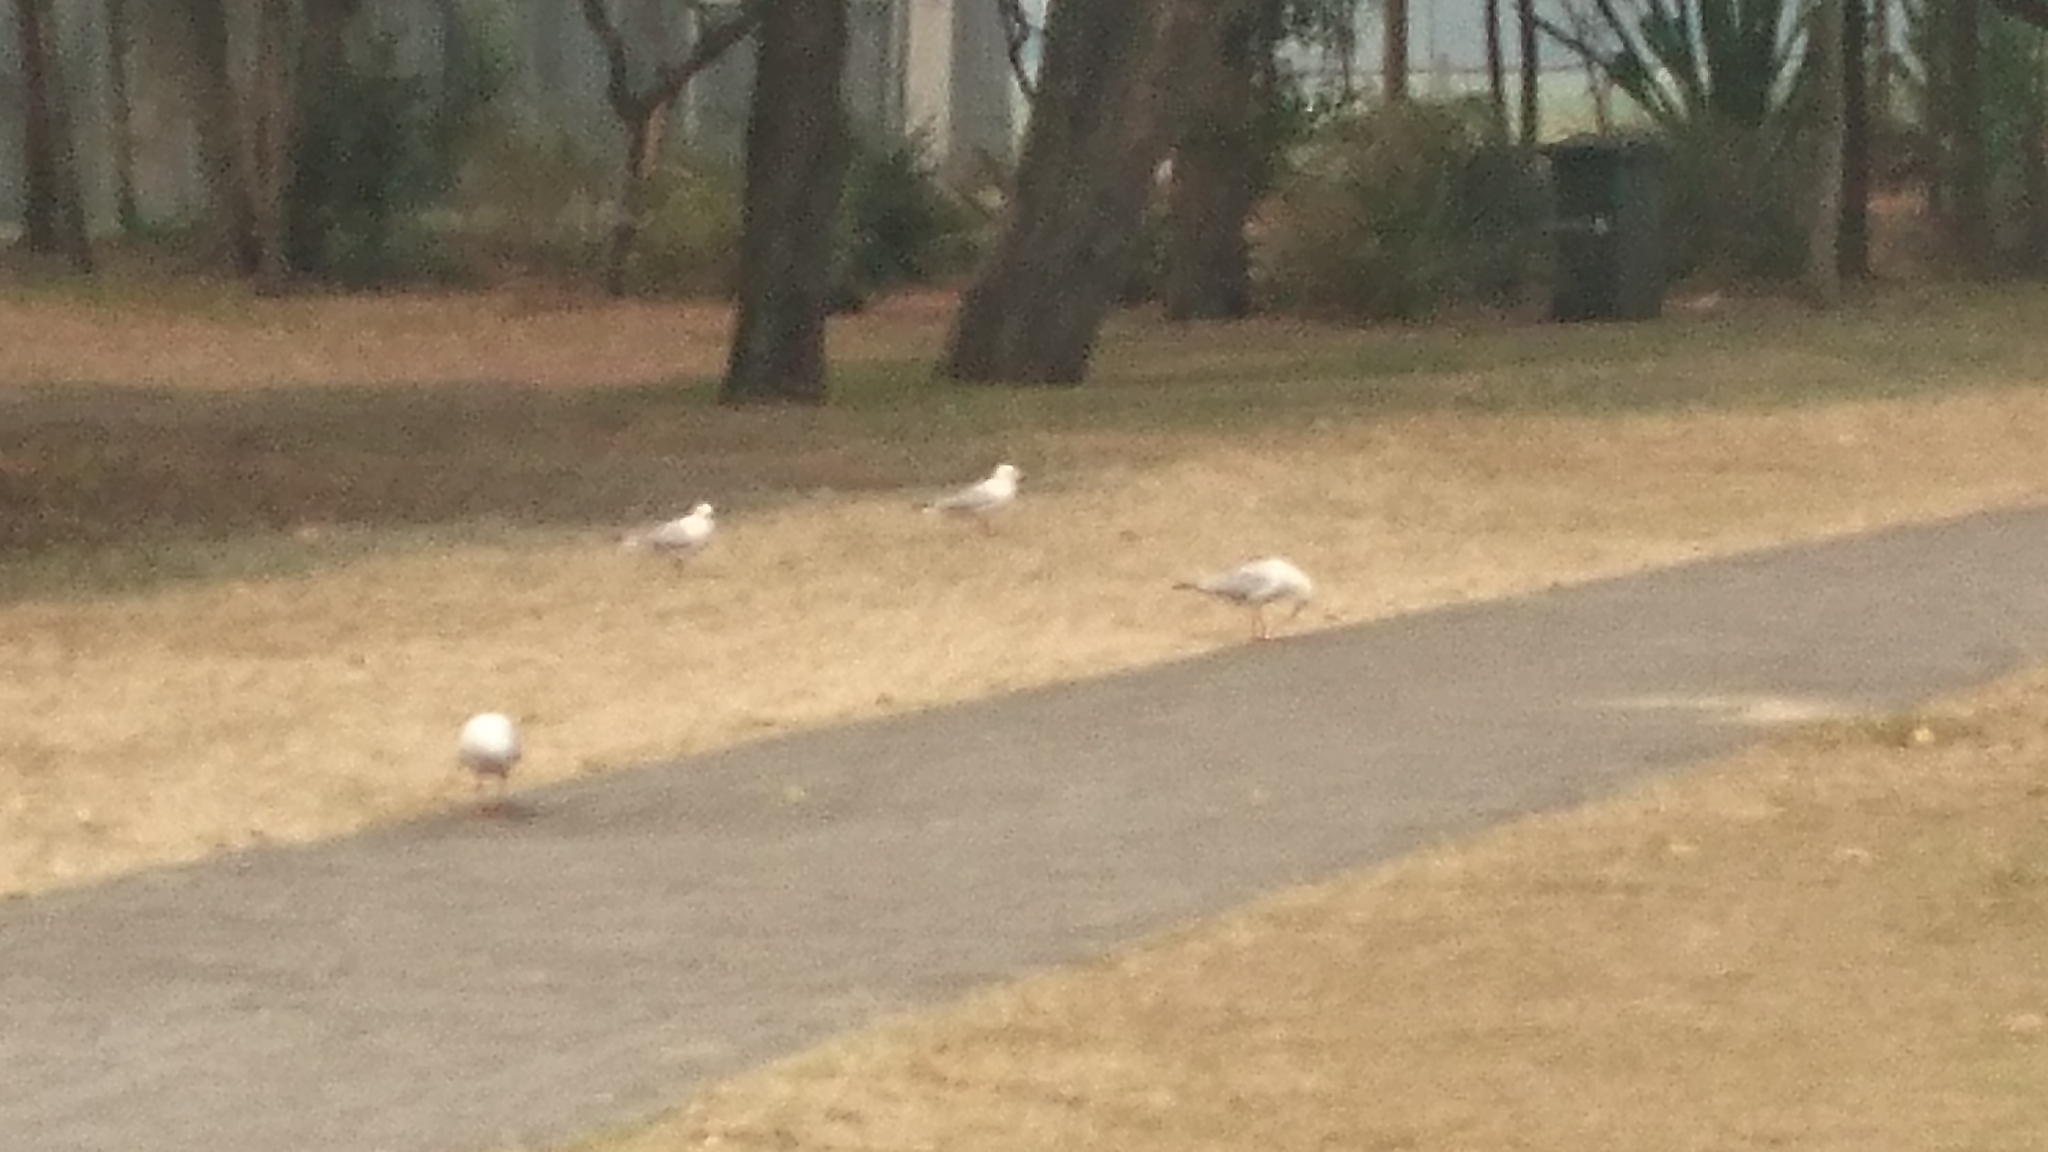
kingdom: Animalia
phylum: Chordata
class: Aves
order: Charadriiformes
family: Laridae
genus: Chroicocephalus
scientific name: Chroicocephalus novaehollandiae
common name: Silver gull
